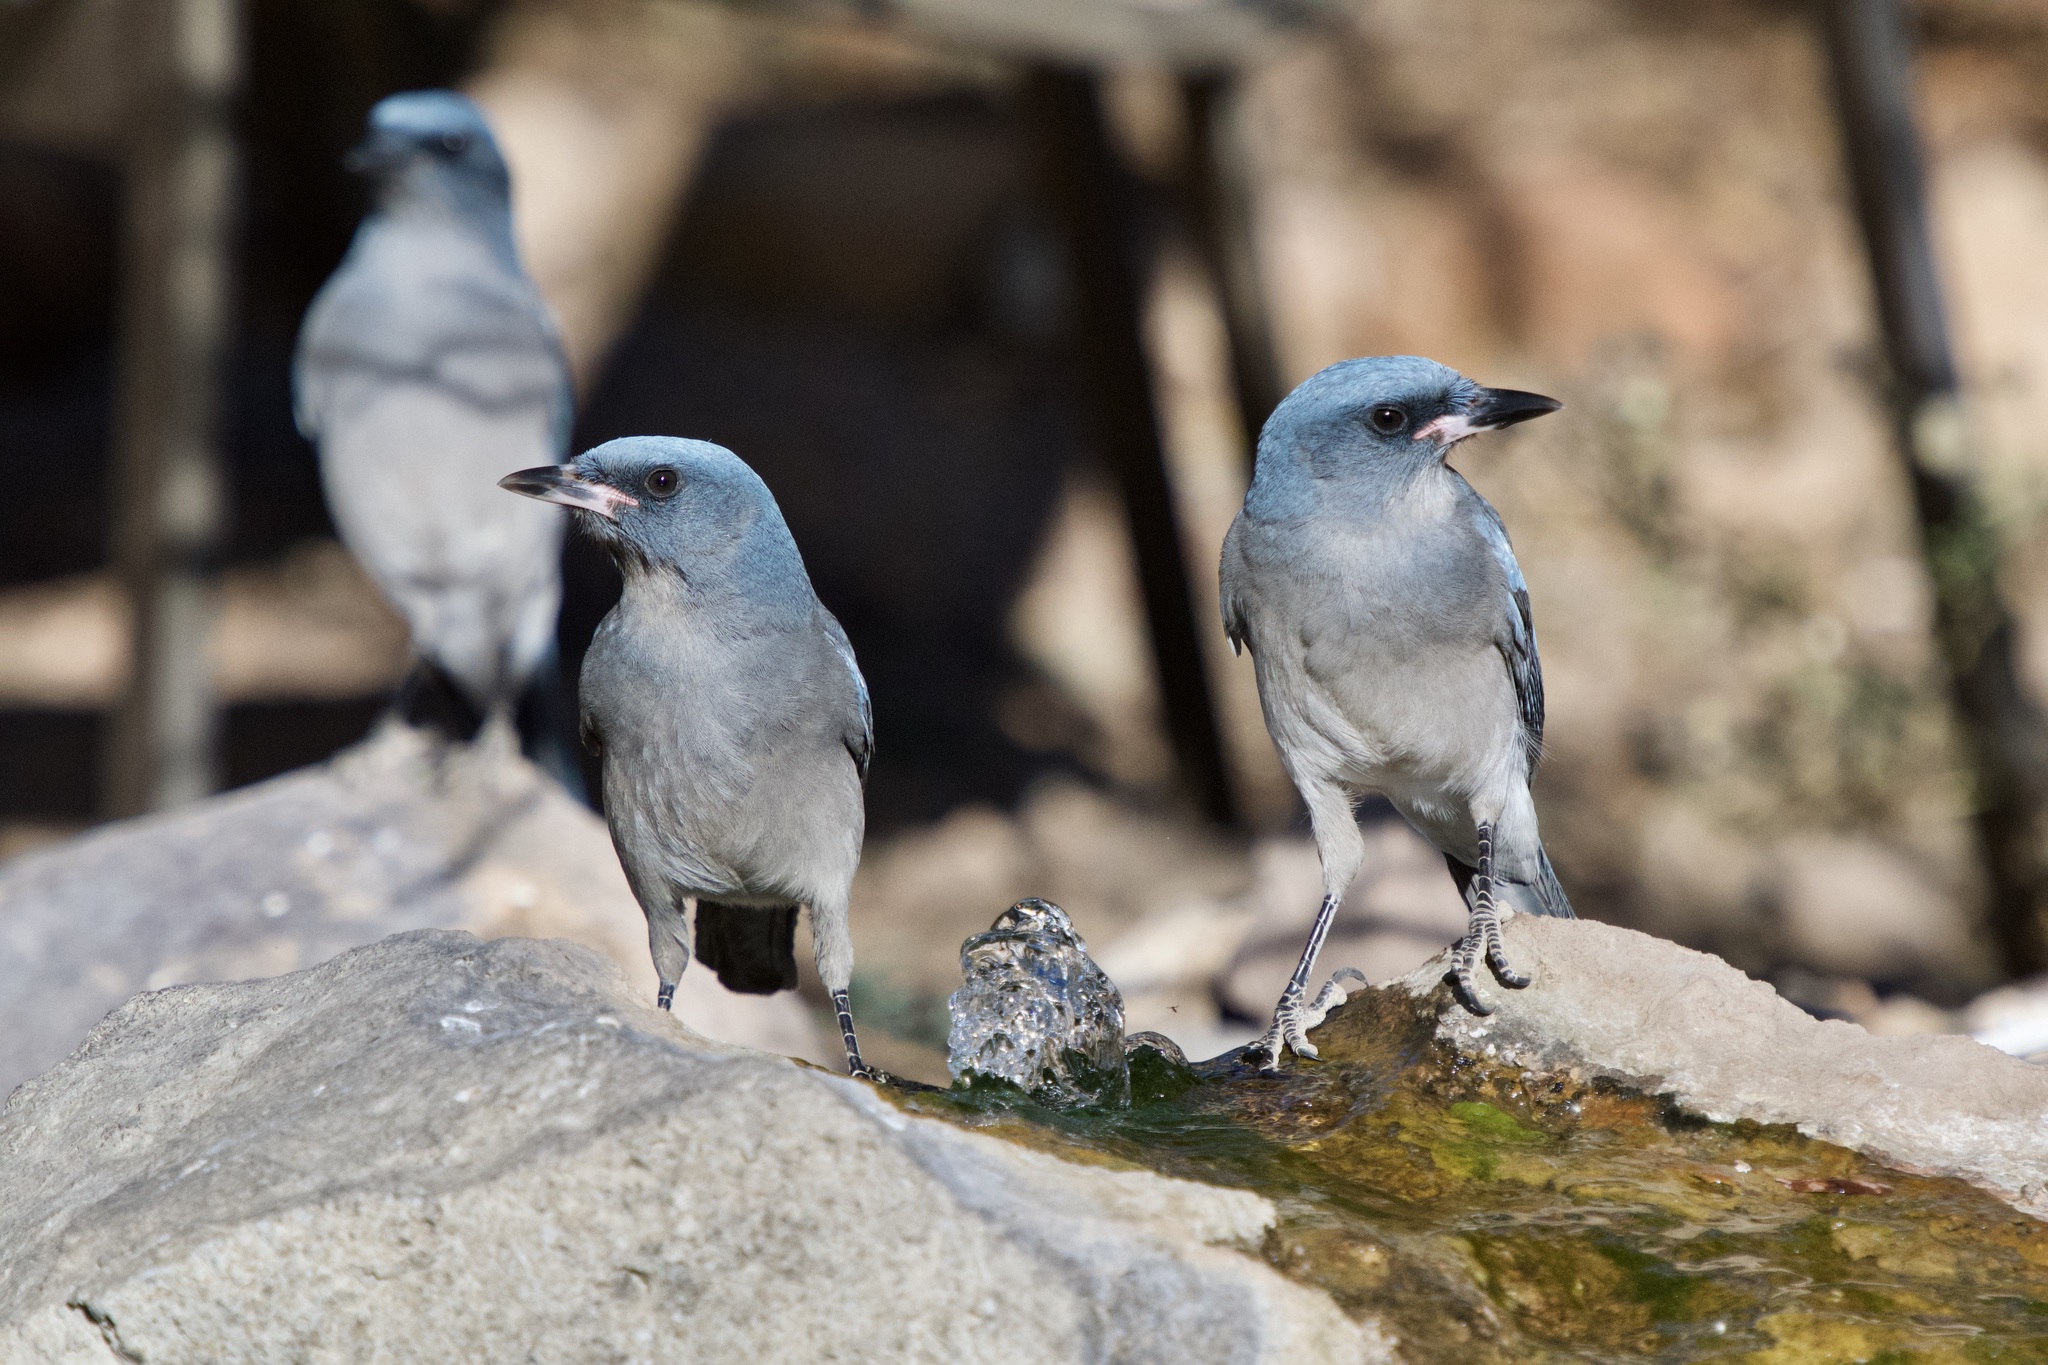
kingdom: Animalia
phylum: Chordata
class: Aves
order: Passeriformes
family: Corvidae
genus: Aphelocoma
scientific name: Aphelocoma wollweberi
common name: Mexican jay
